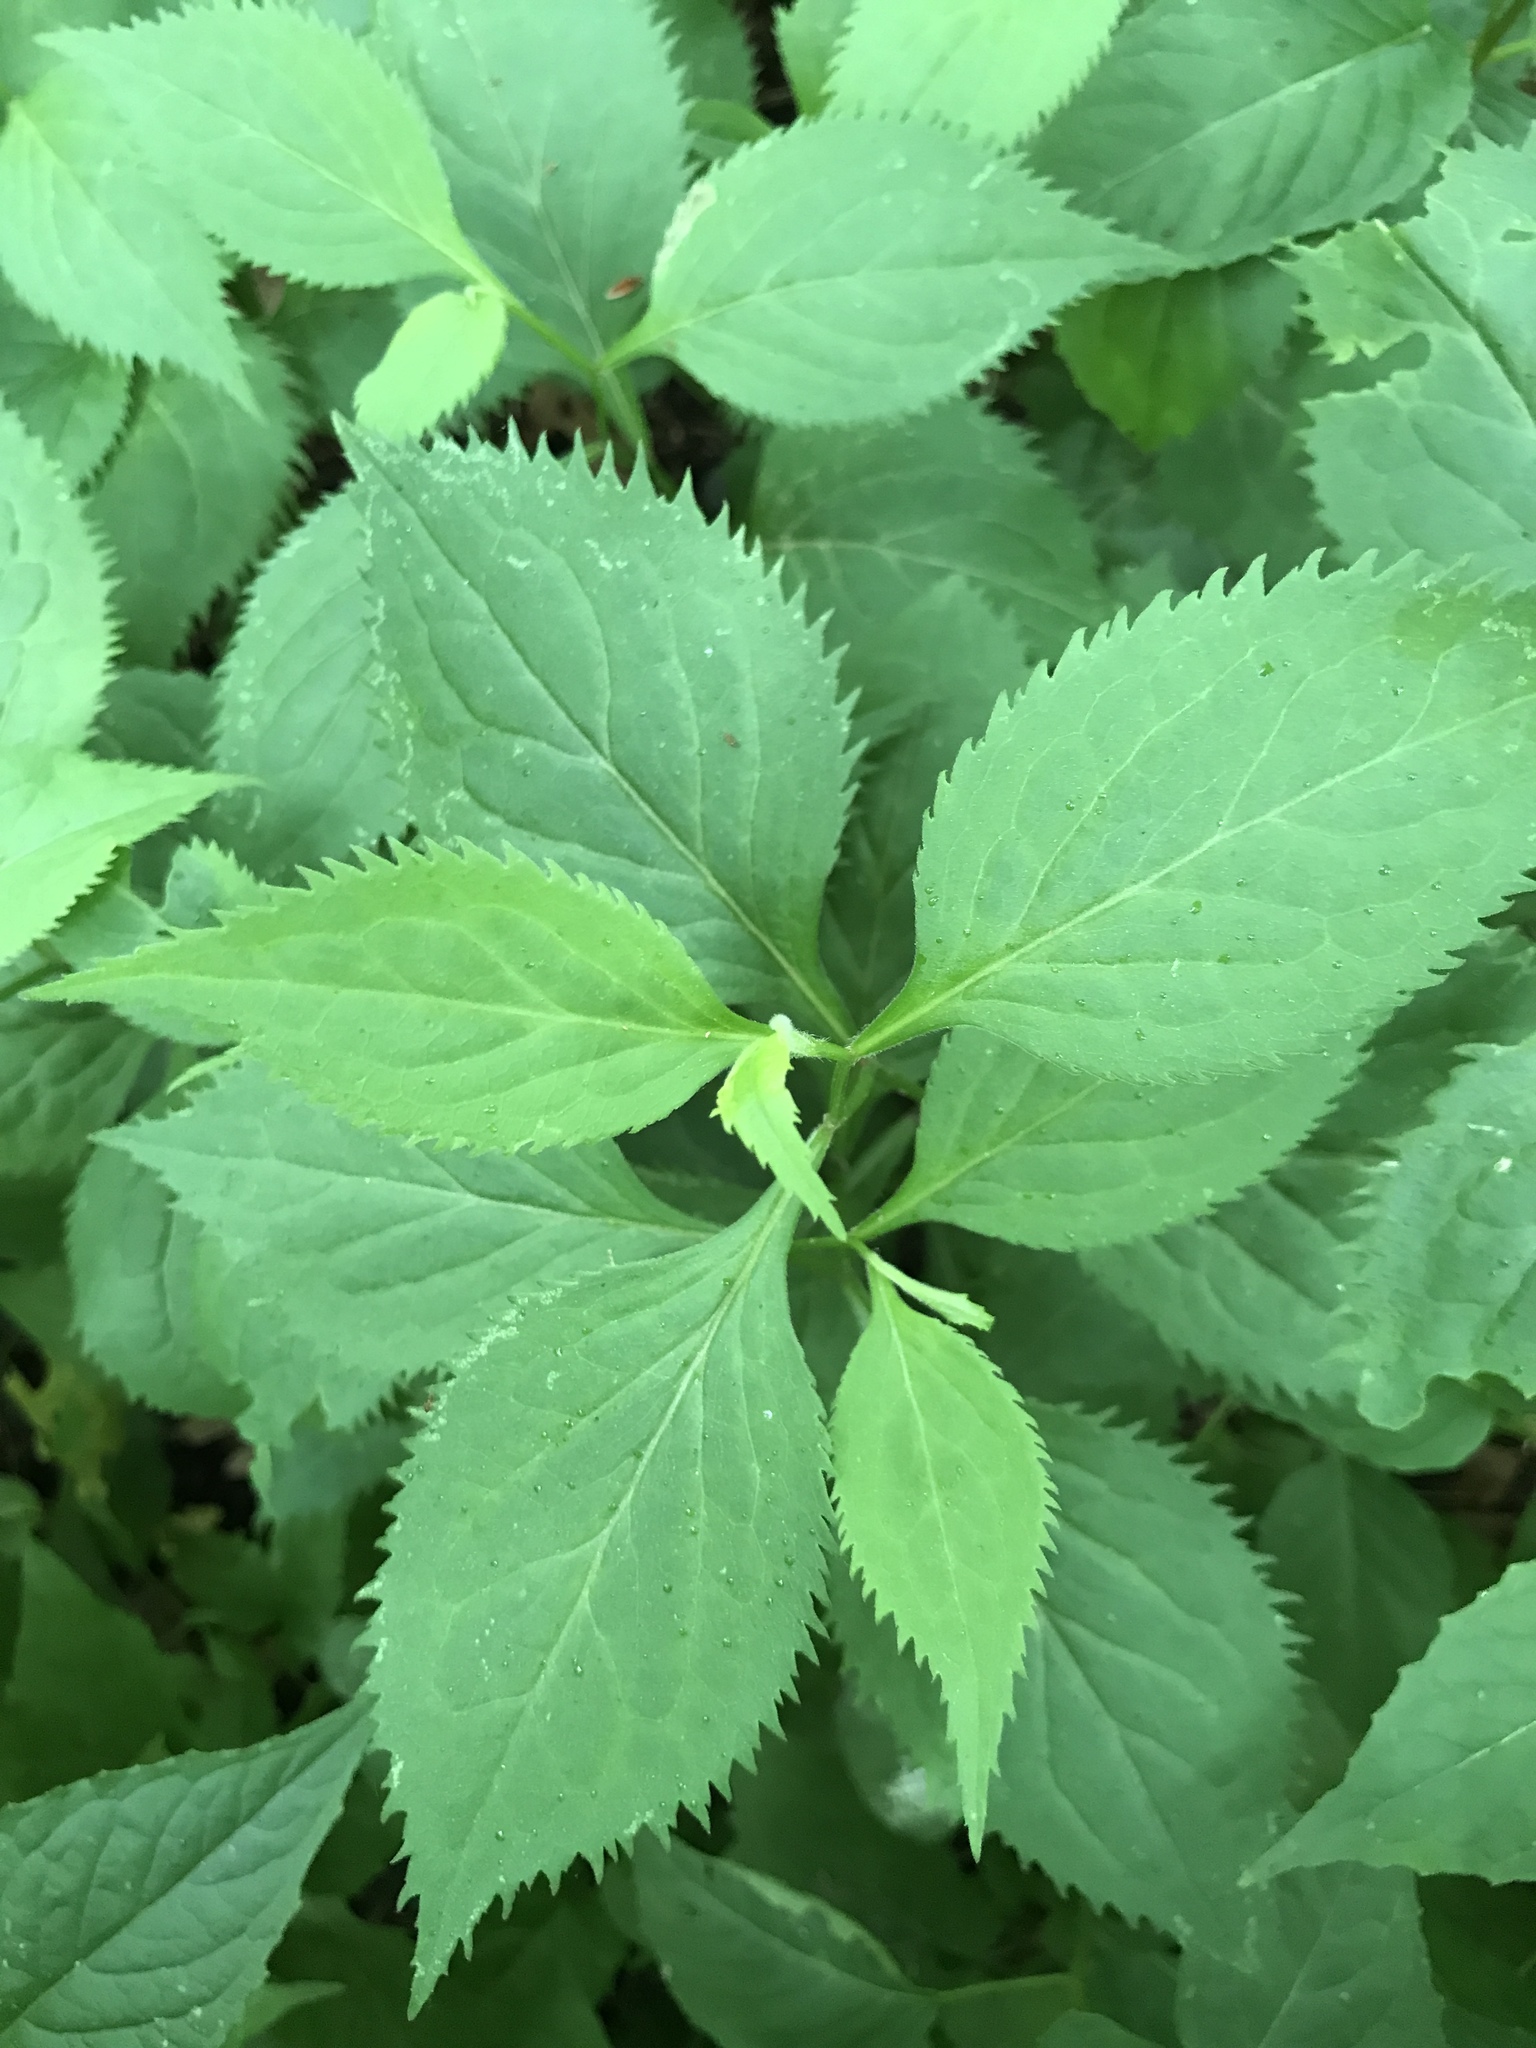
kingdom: Plantae
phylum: Tracheophyta
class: Magnoliopsida
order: Asterales
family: Asteraceae
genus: Solidago
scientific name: Solidago flexicaulis
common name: Zig-zag goldenrod
